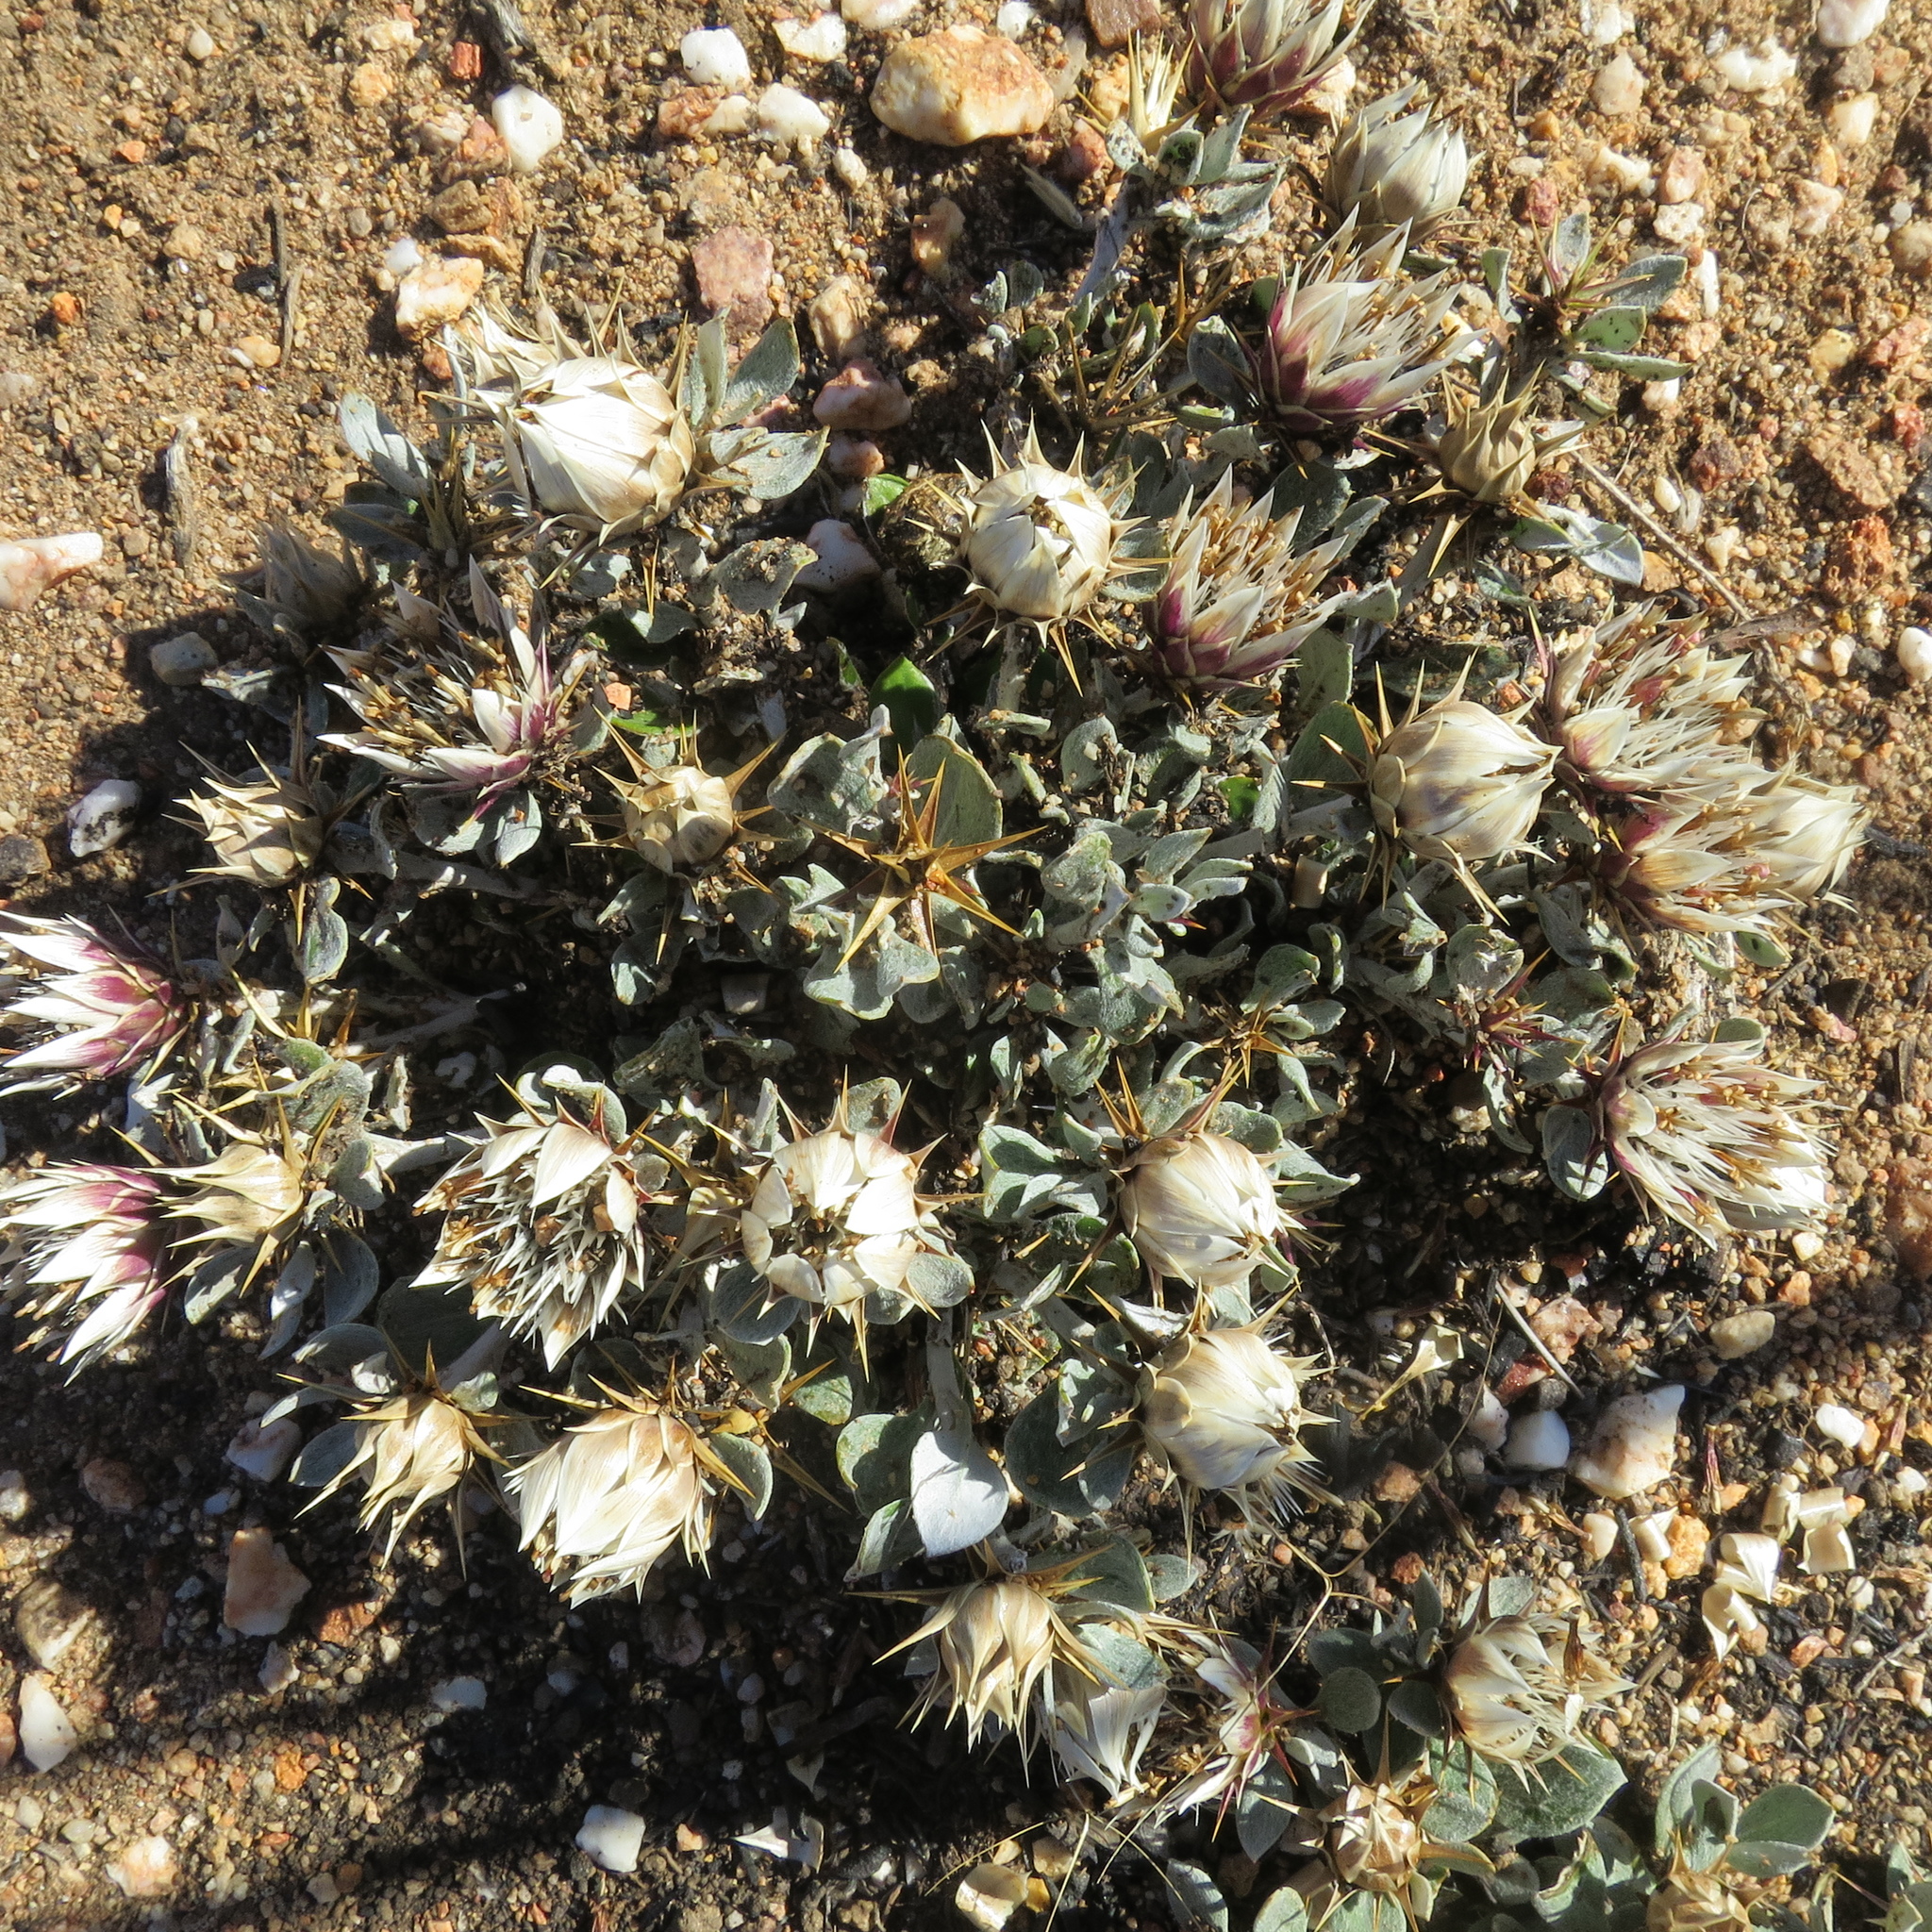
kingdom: Plantae
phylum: Tracheophyta
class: Magnoliopsida
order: Asterales
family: Asteraceae
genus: Macledium
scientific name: Macledium spinosum
